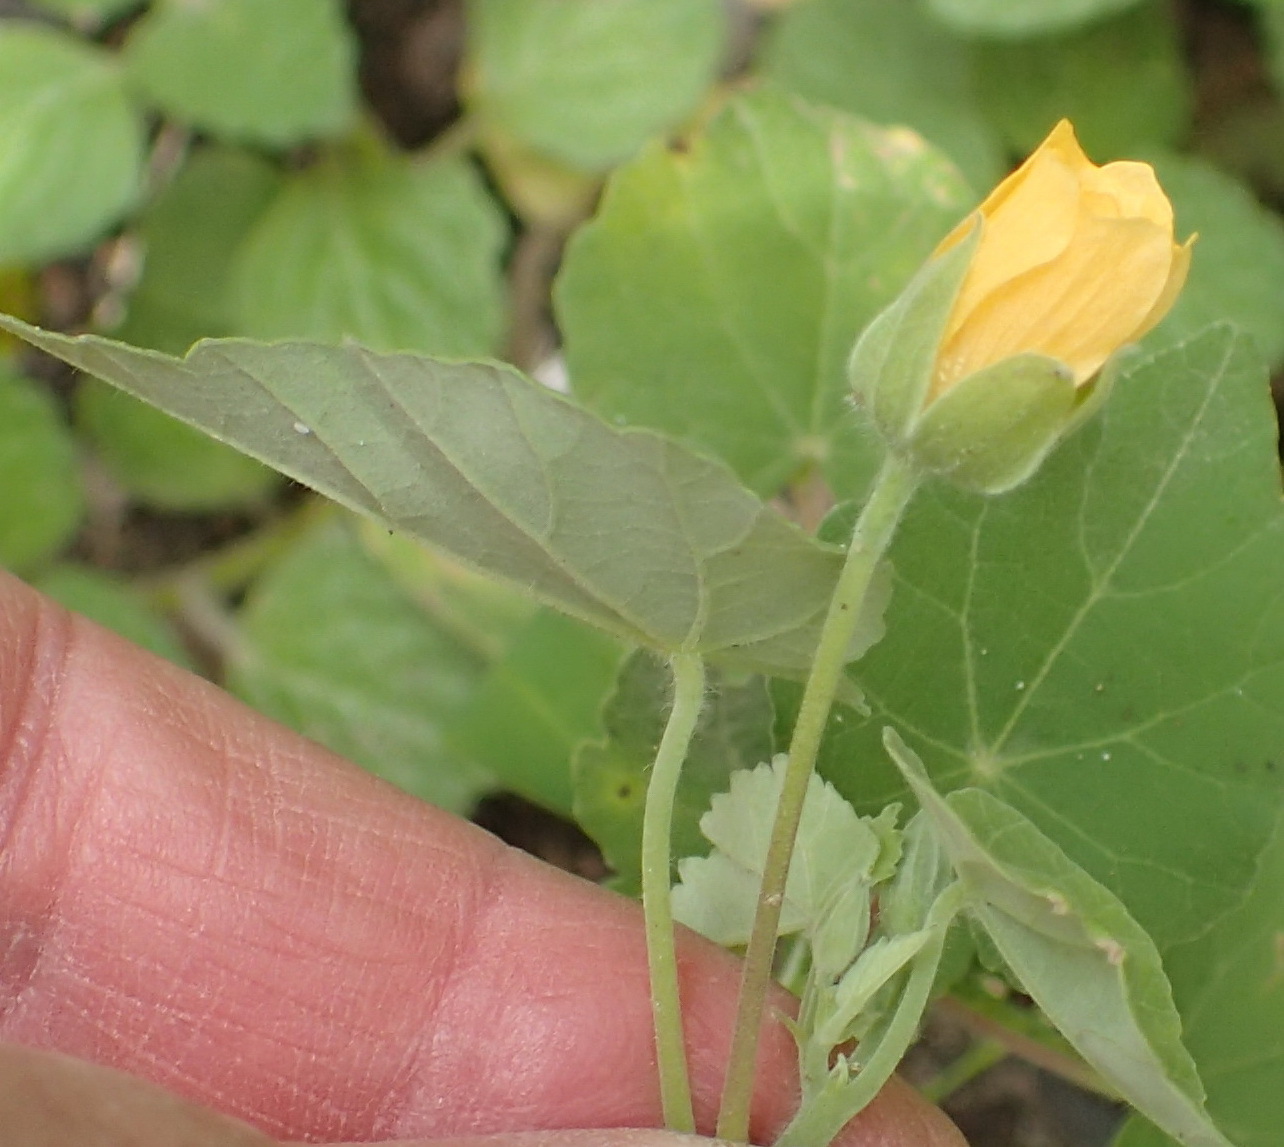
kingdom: Plantae
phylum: Tracheophyta
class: Magnoliopsida
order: Malvales
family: Malvaceae
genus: Abutilon
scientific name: Abutilon sonneratianum
